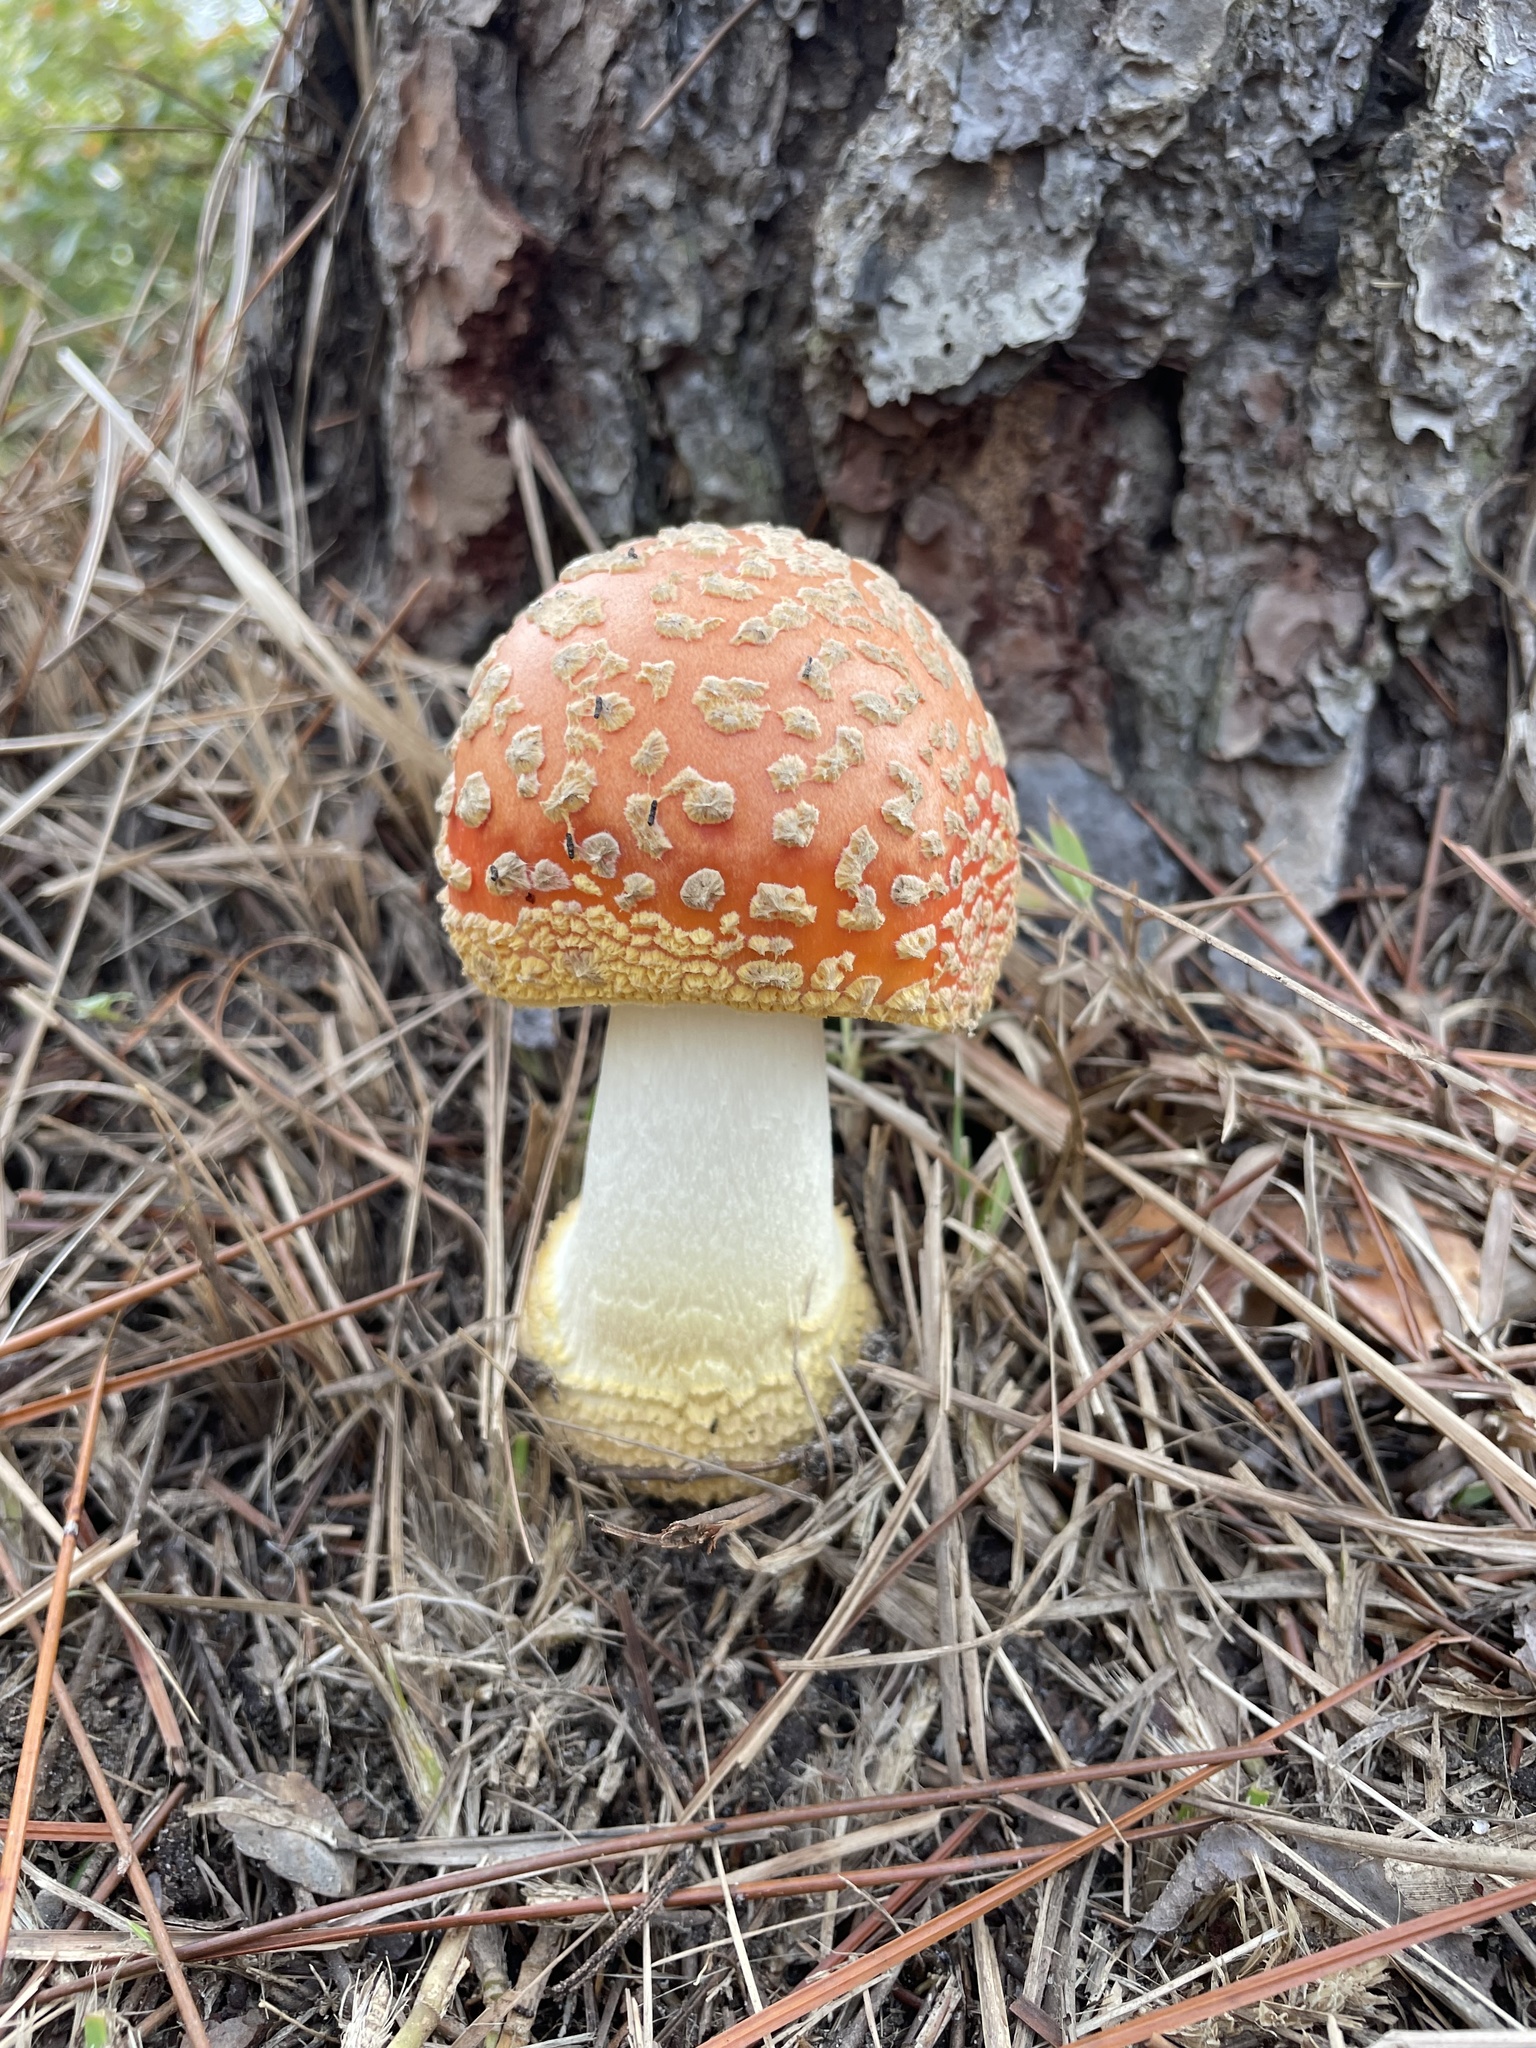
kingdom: Fungi
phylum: Basidiomycota
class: Agaricomycetes
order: Agaricales
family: Amanitaceae
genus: Amanita
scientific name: Amanita persicina
